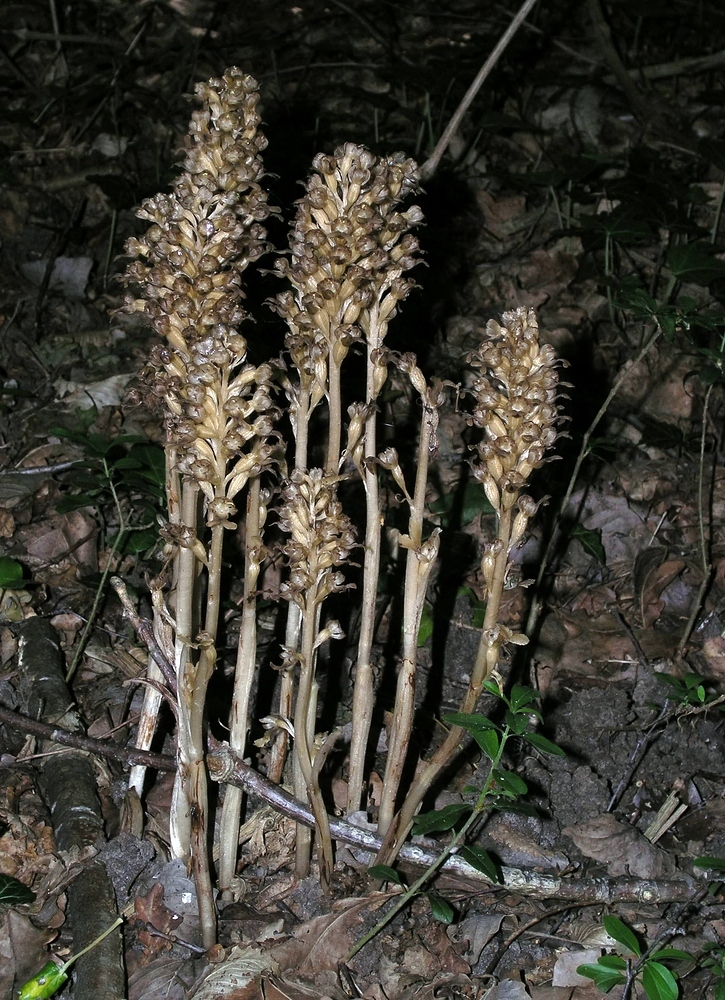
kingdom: Plantae
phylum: Tracheophyta
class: Liliopsida
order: Asparagales
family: Orchidaceae
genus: Neottia
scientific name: Neottia nidus-avis
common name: Bird's-nest orchid
